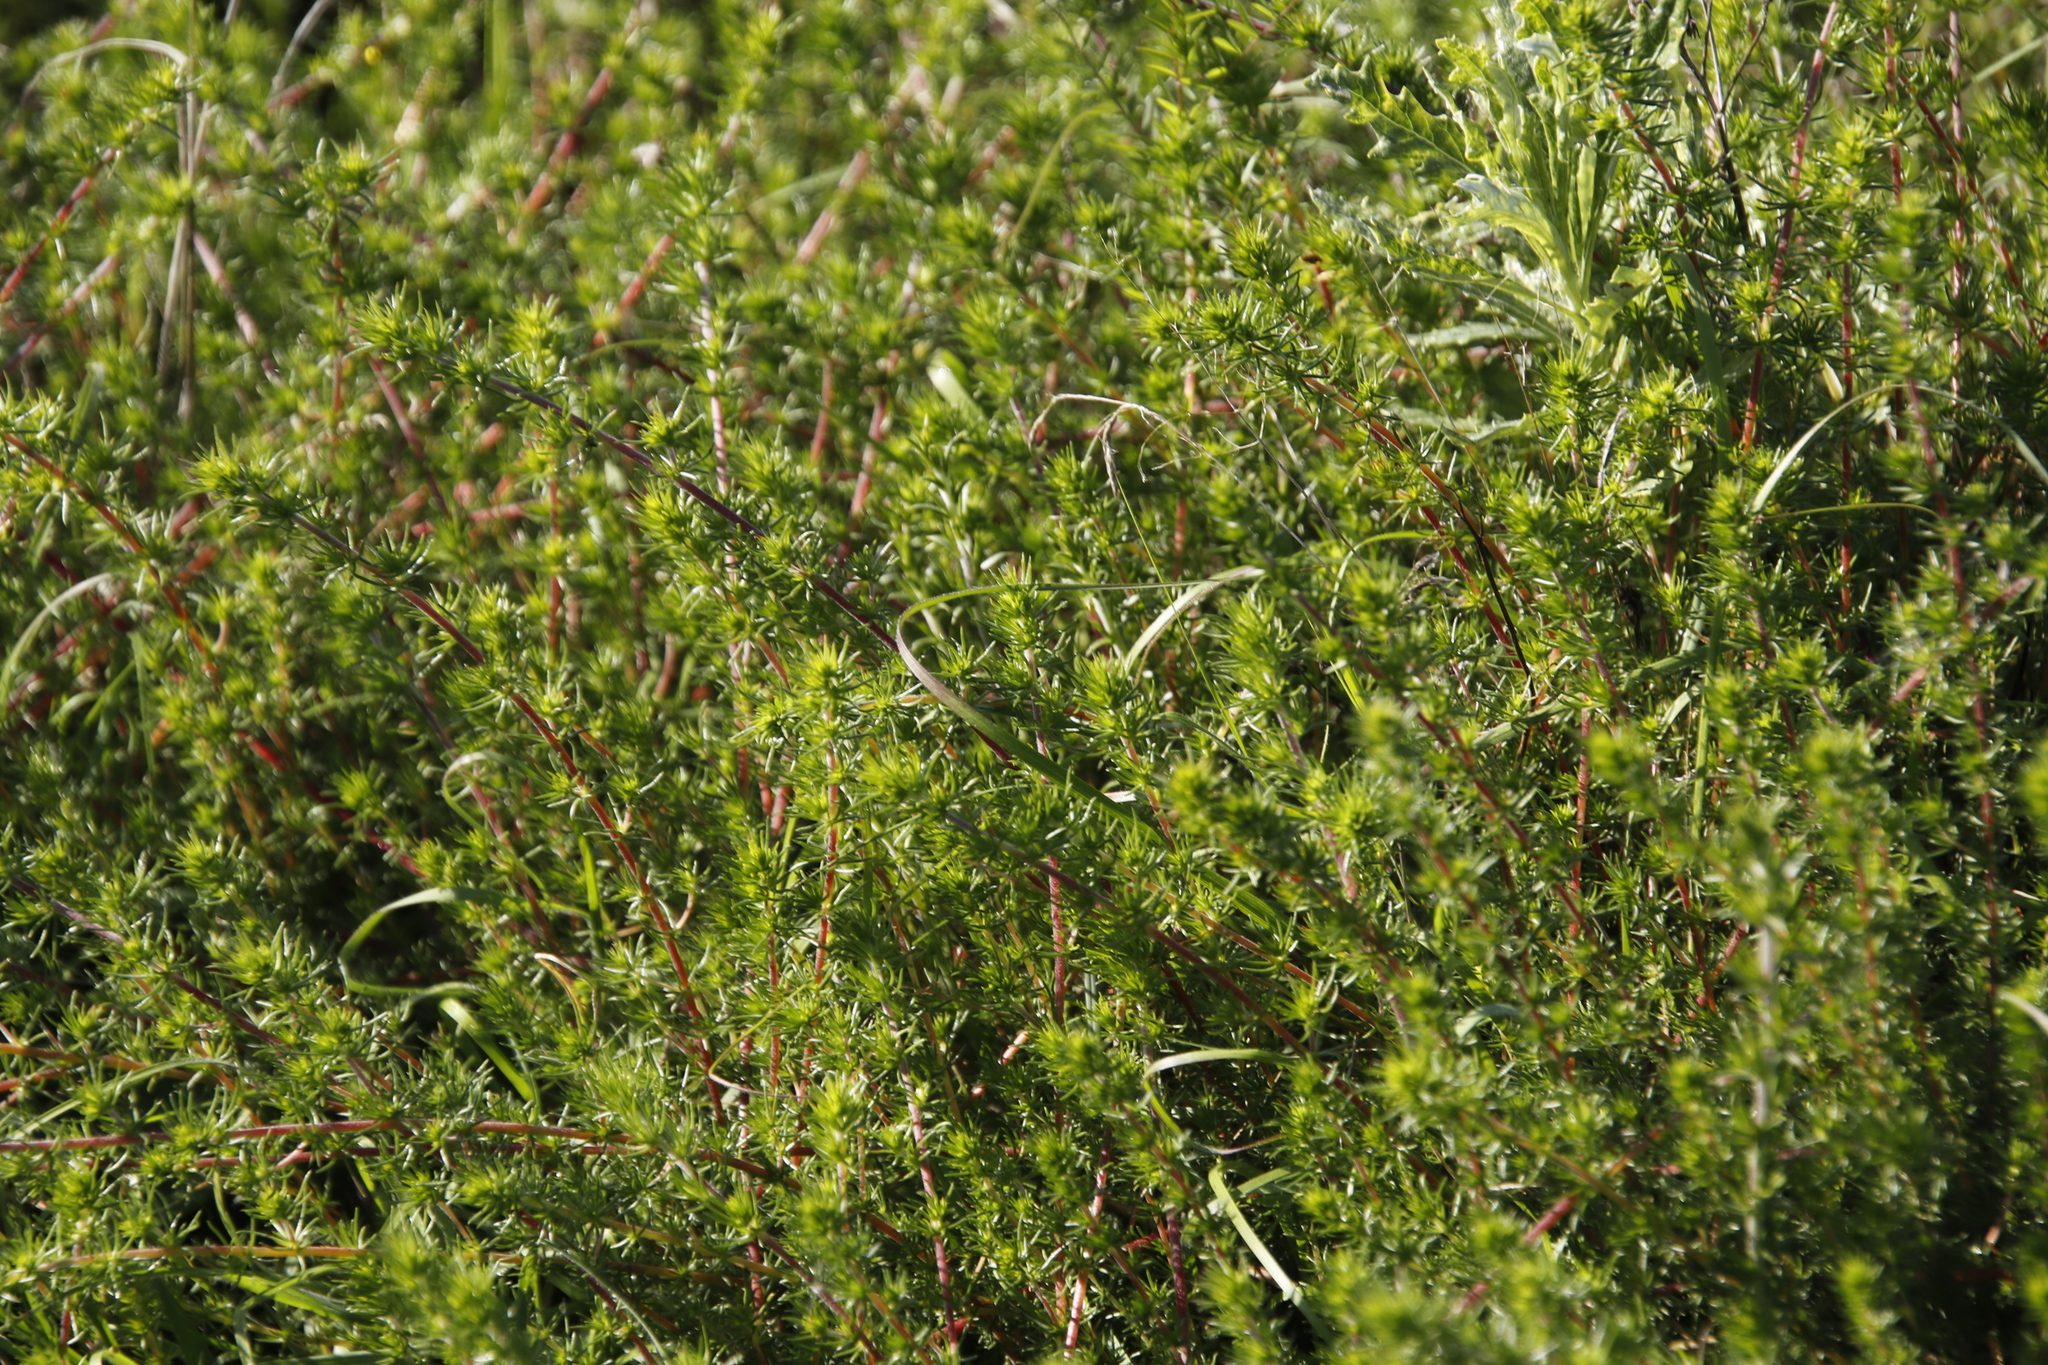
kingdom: Plantae
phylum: Tracheophyta
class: Magnoliopsida
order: Fabales
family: Fabaceae
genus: Aspalathus
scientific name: Aspalathus retroflexa
